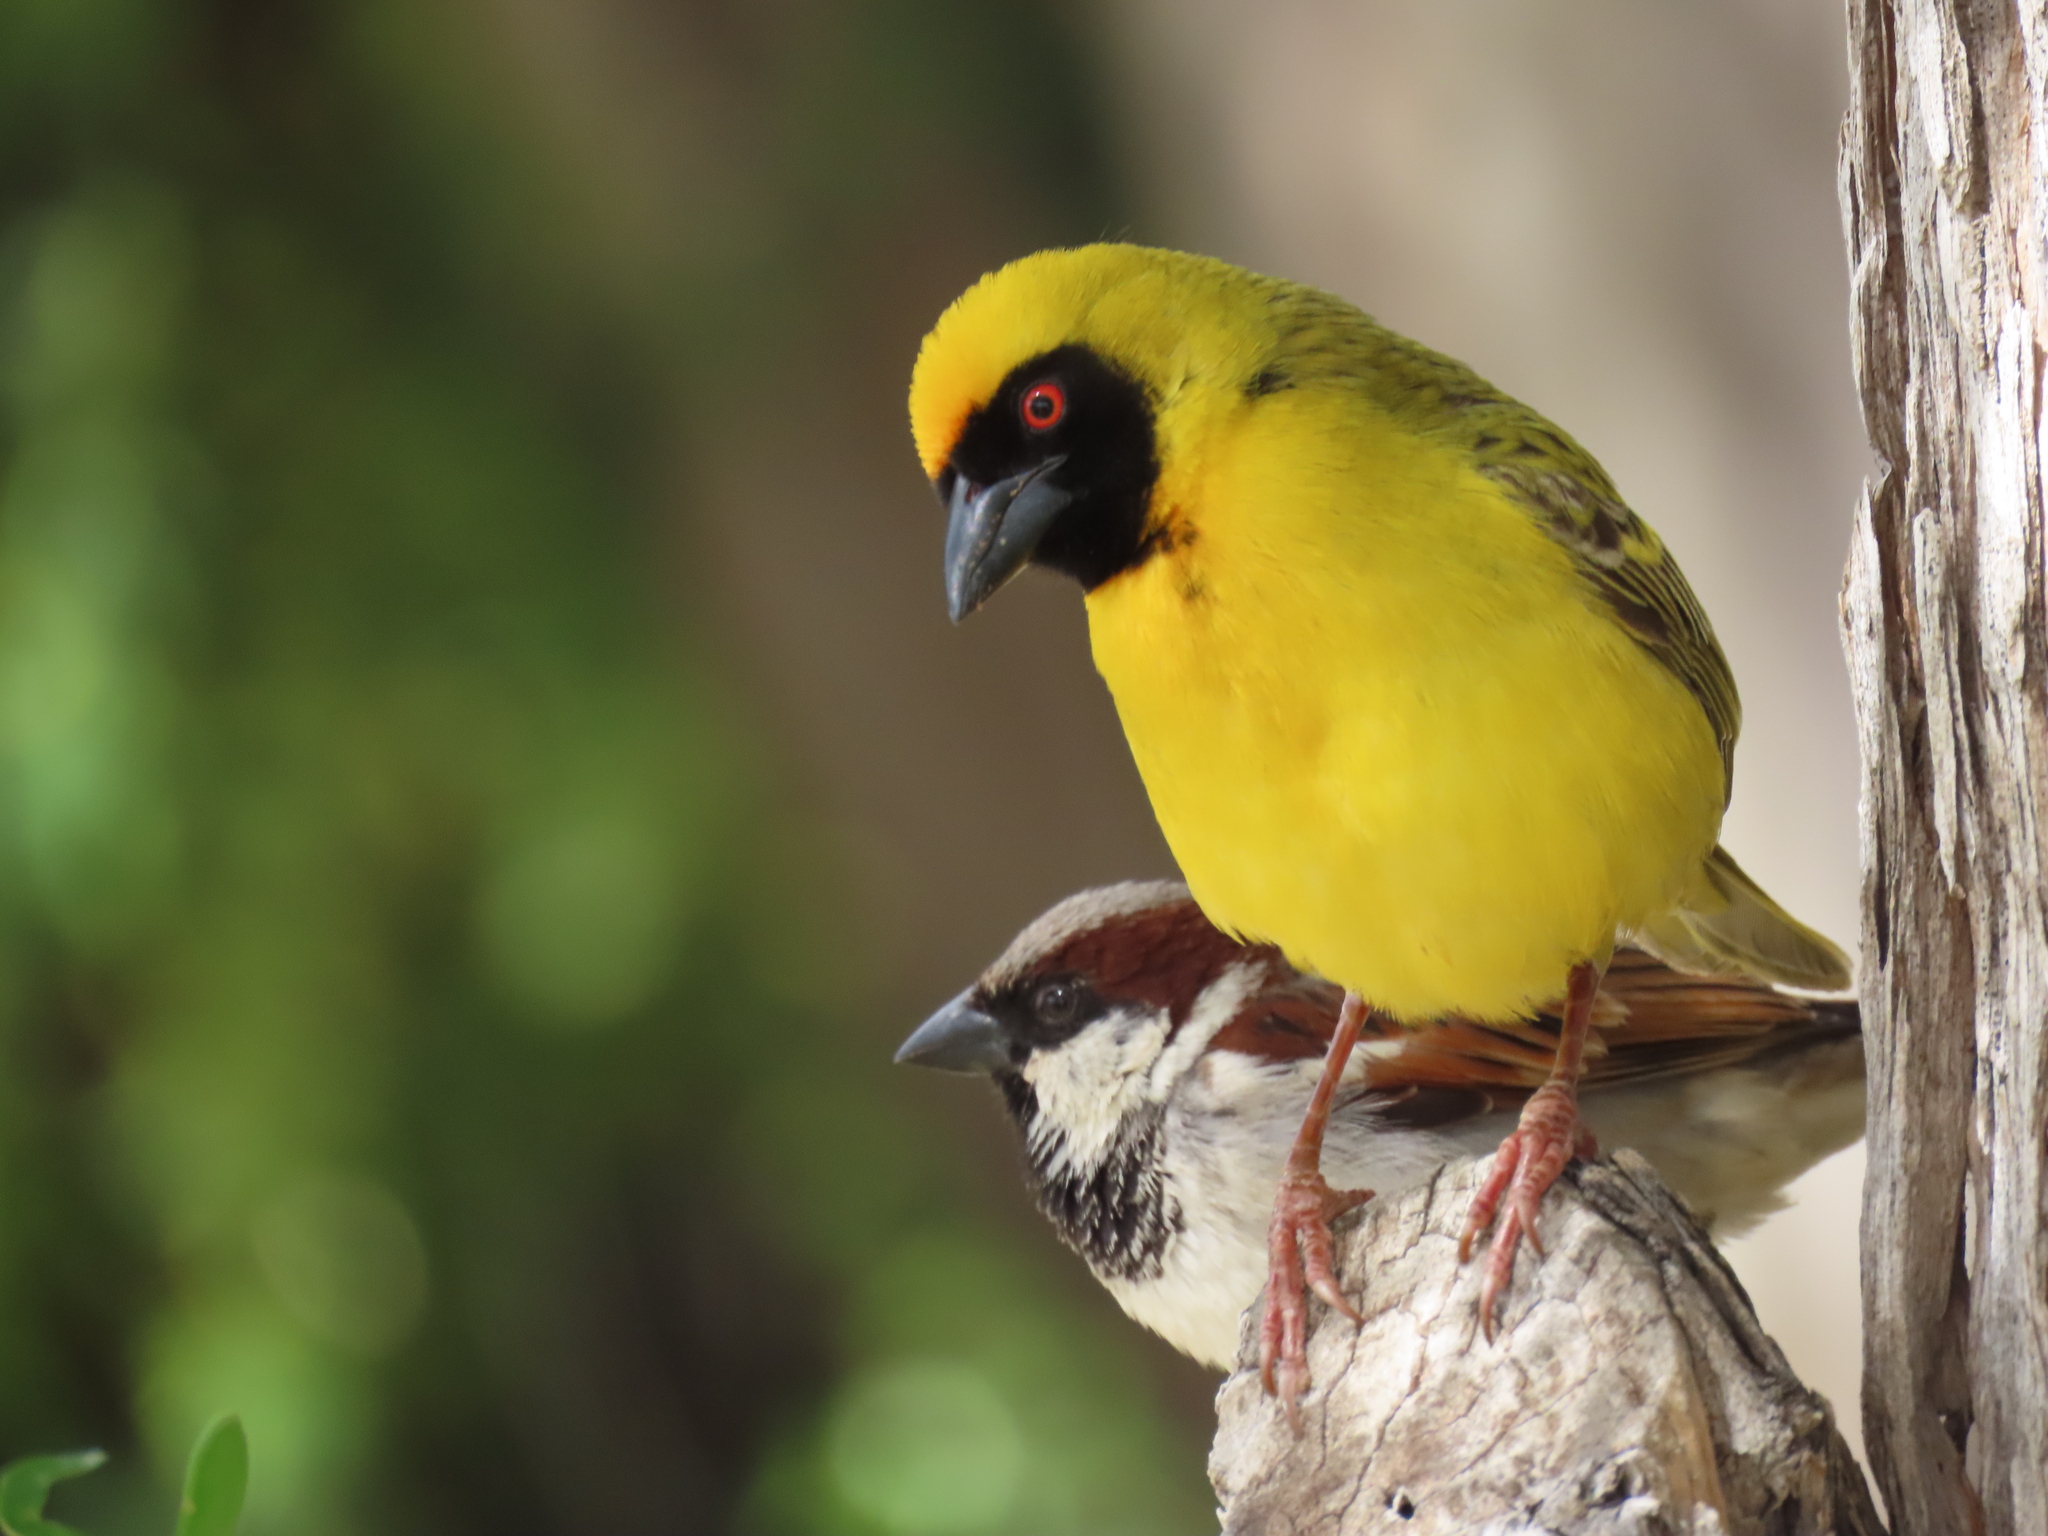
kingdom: Animalia
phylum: Chordata
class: Aves
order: Passeriformes
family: Ploceidae
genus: Ploceus
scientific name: Ploceus velatus
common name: Southern masked weaver
